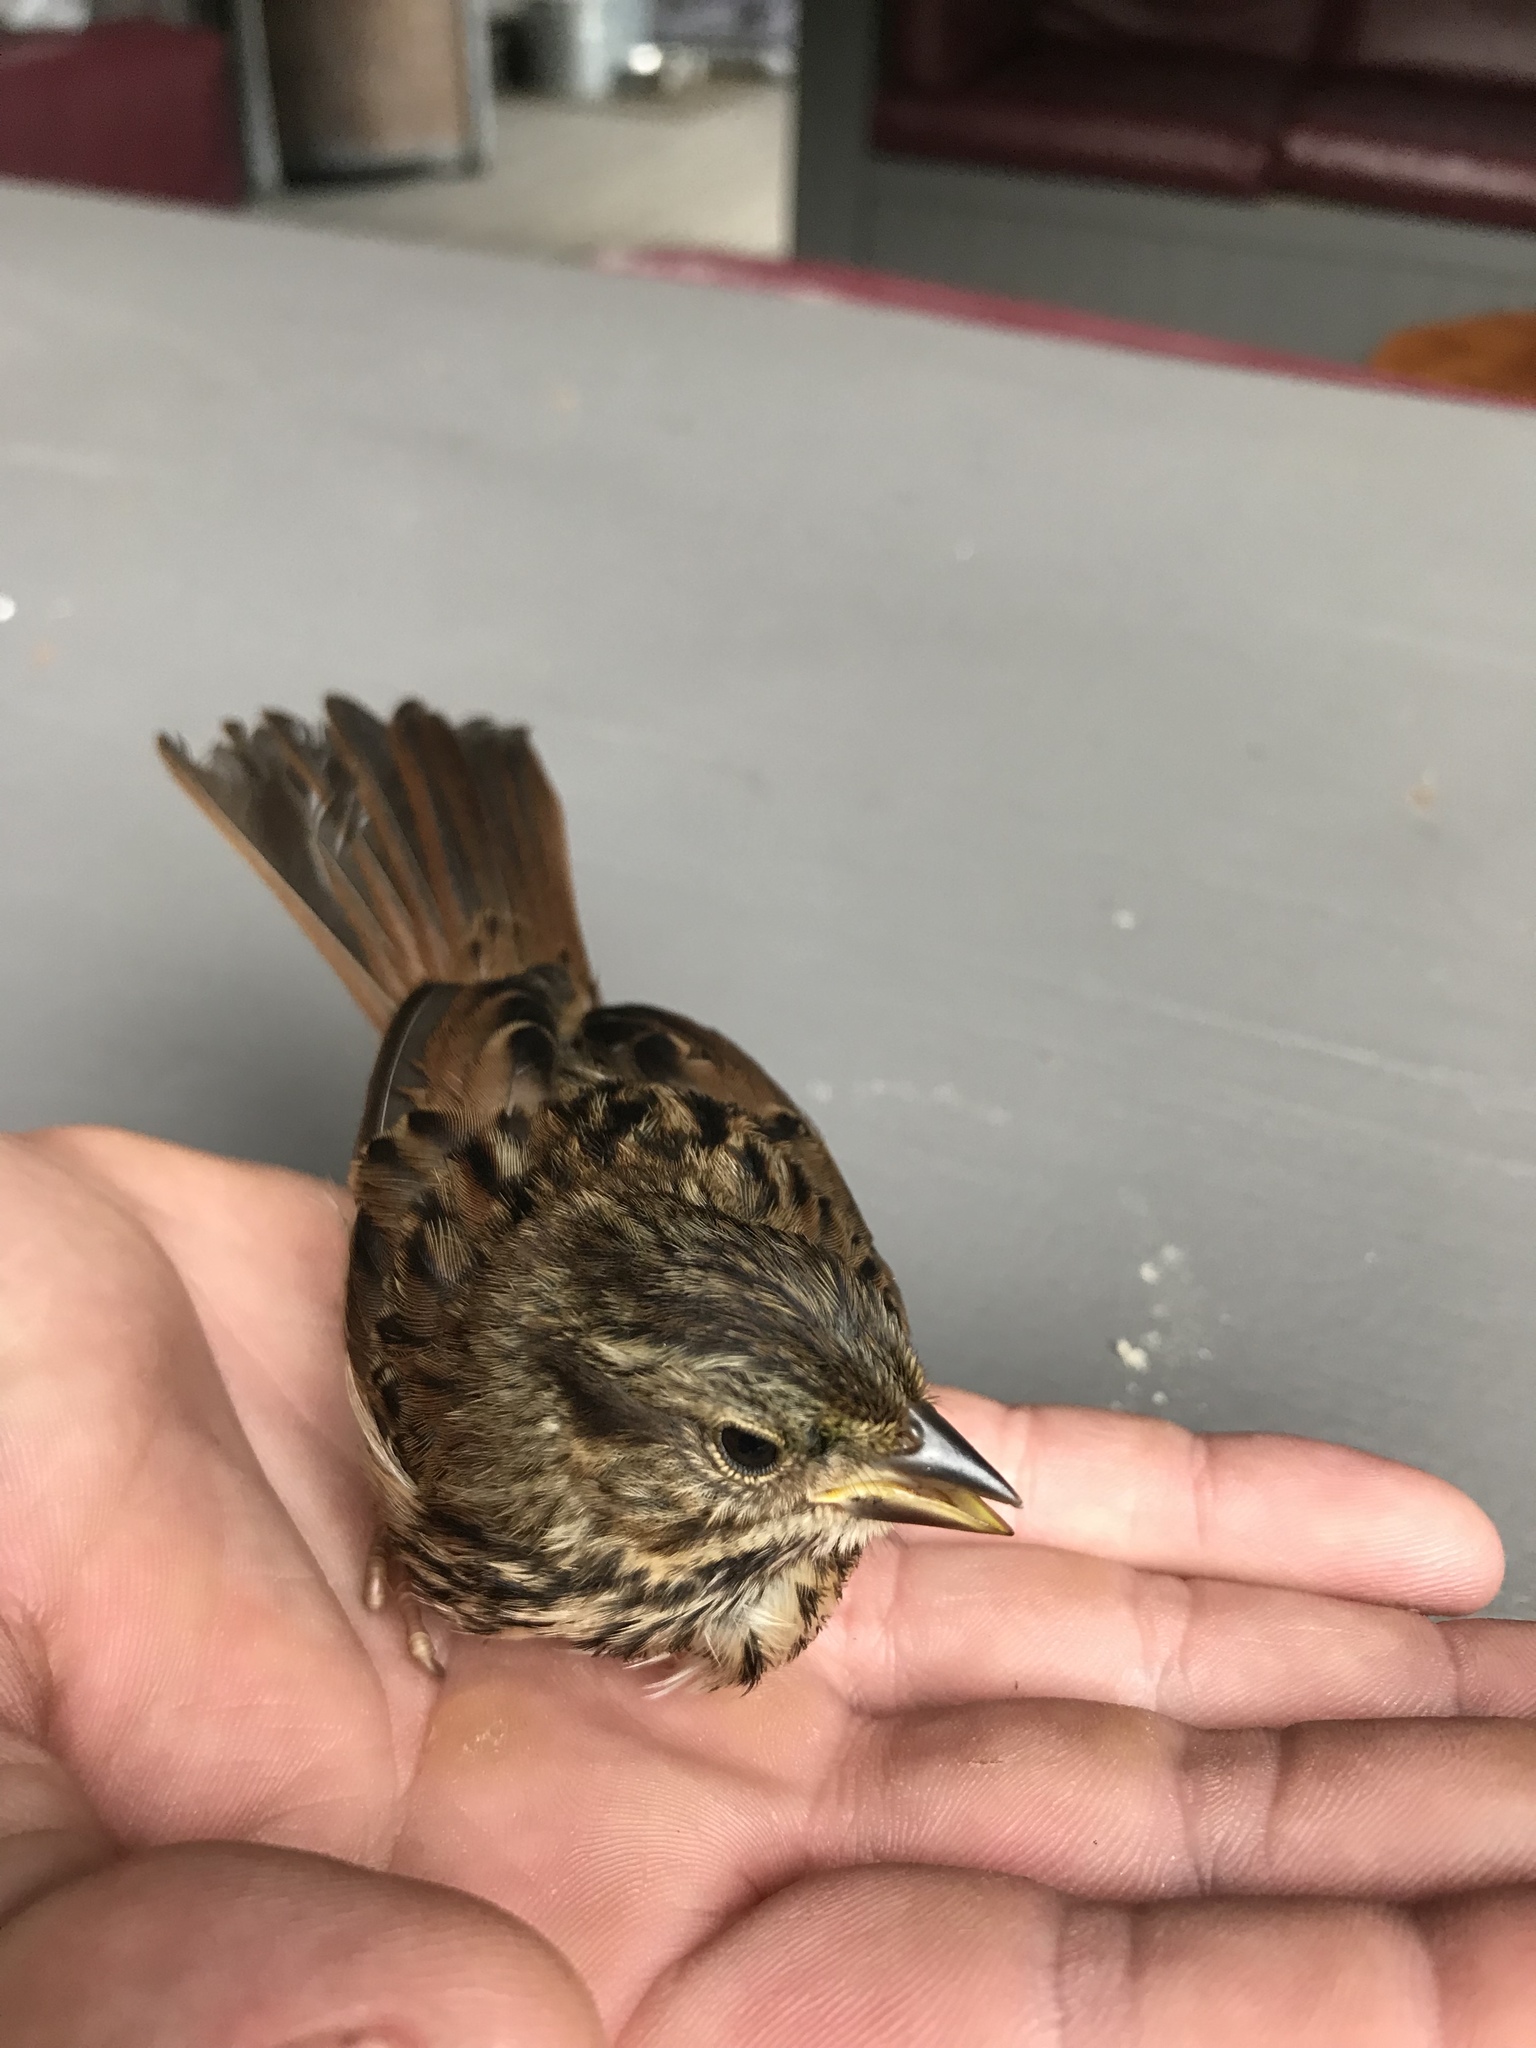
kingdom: Animalia
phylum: Chordata
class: Aves
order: Passeriformes
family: Passerellidae
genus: Melospiza
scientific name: Melospiza melodia
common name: Song sparrow
